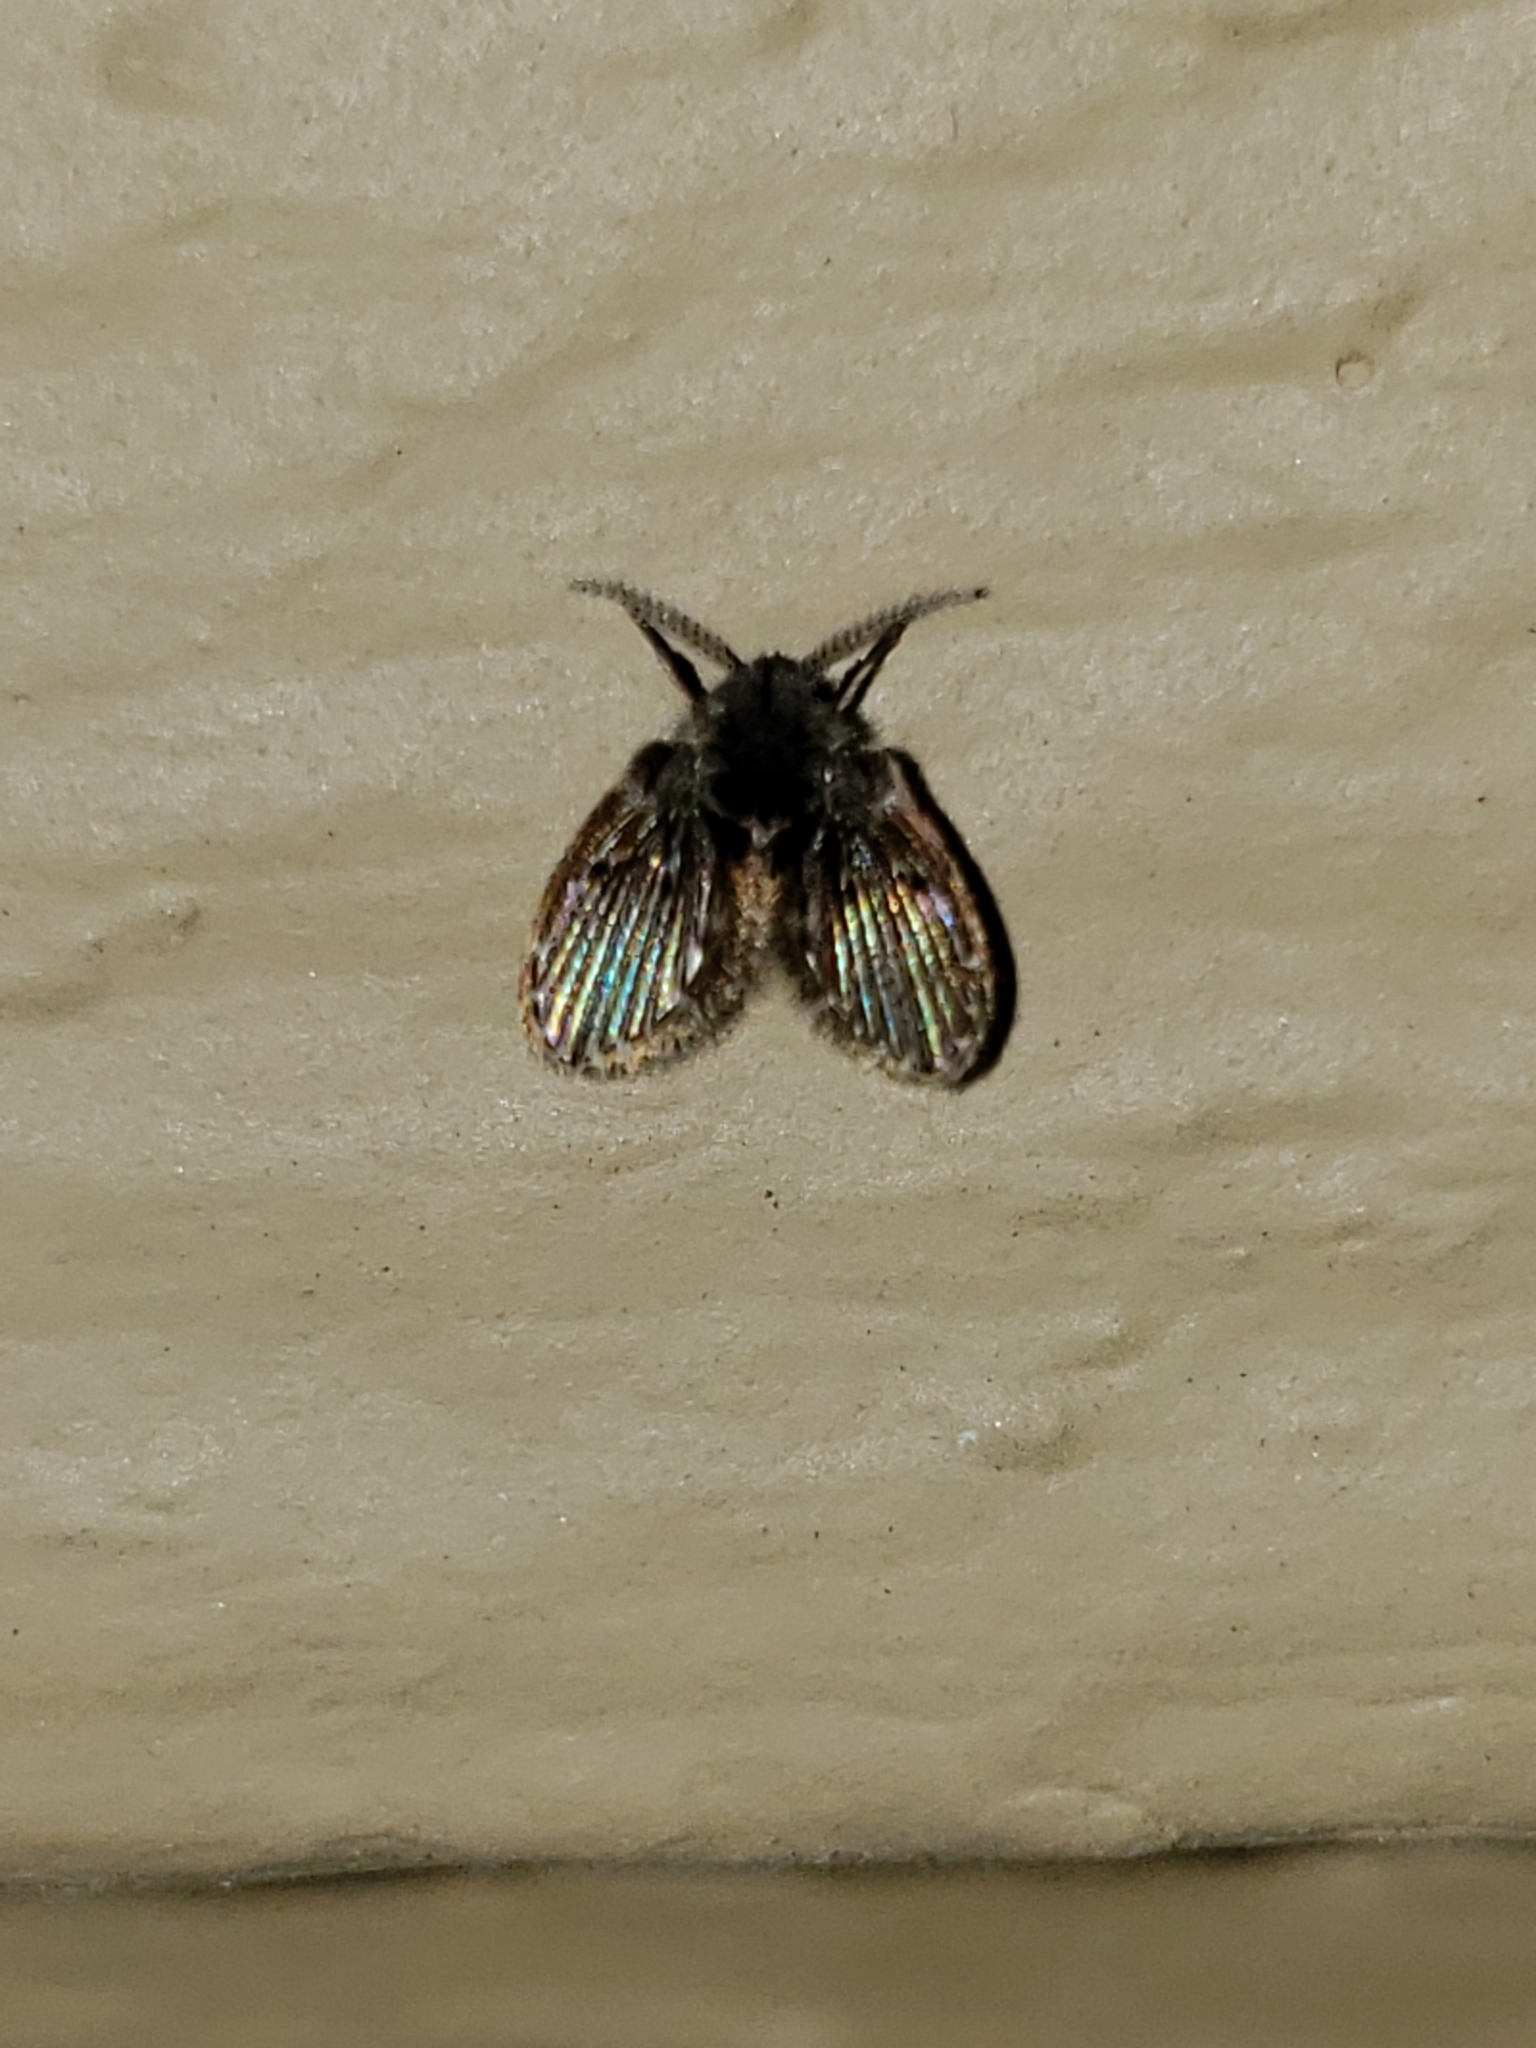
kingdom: Animalia
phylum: Arthropoda
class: Insecta
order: Diptera
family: Psychodidae
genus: Clogmia
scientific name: Clogmia albipunctatus
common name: White-spotted moth fly
